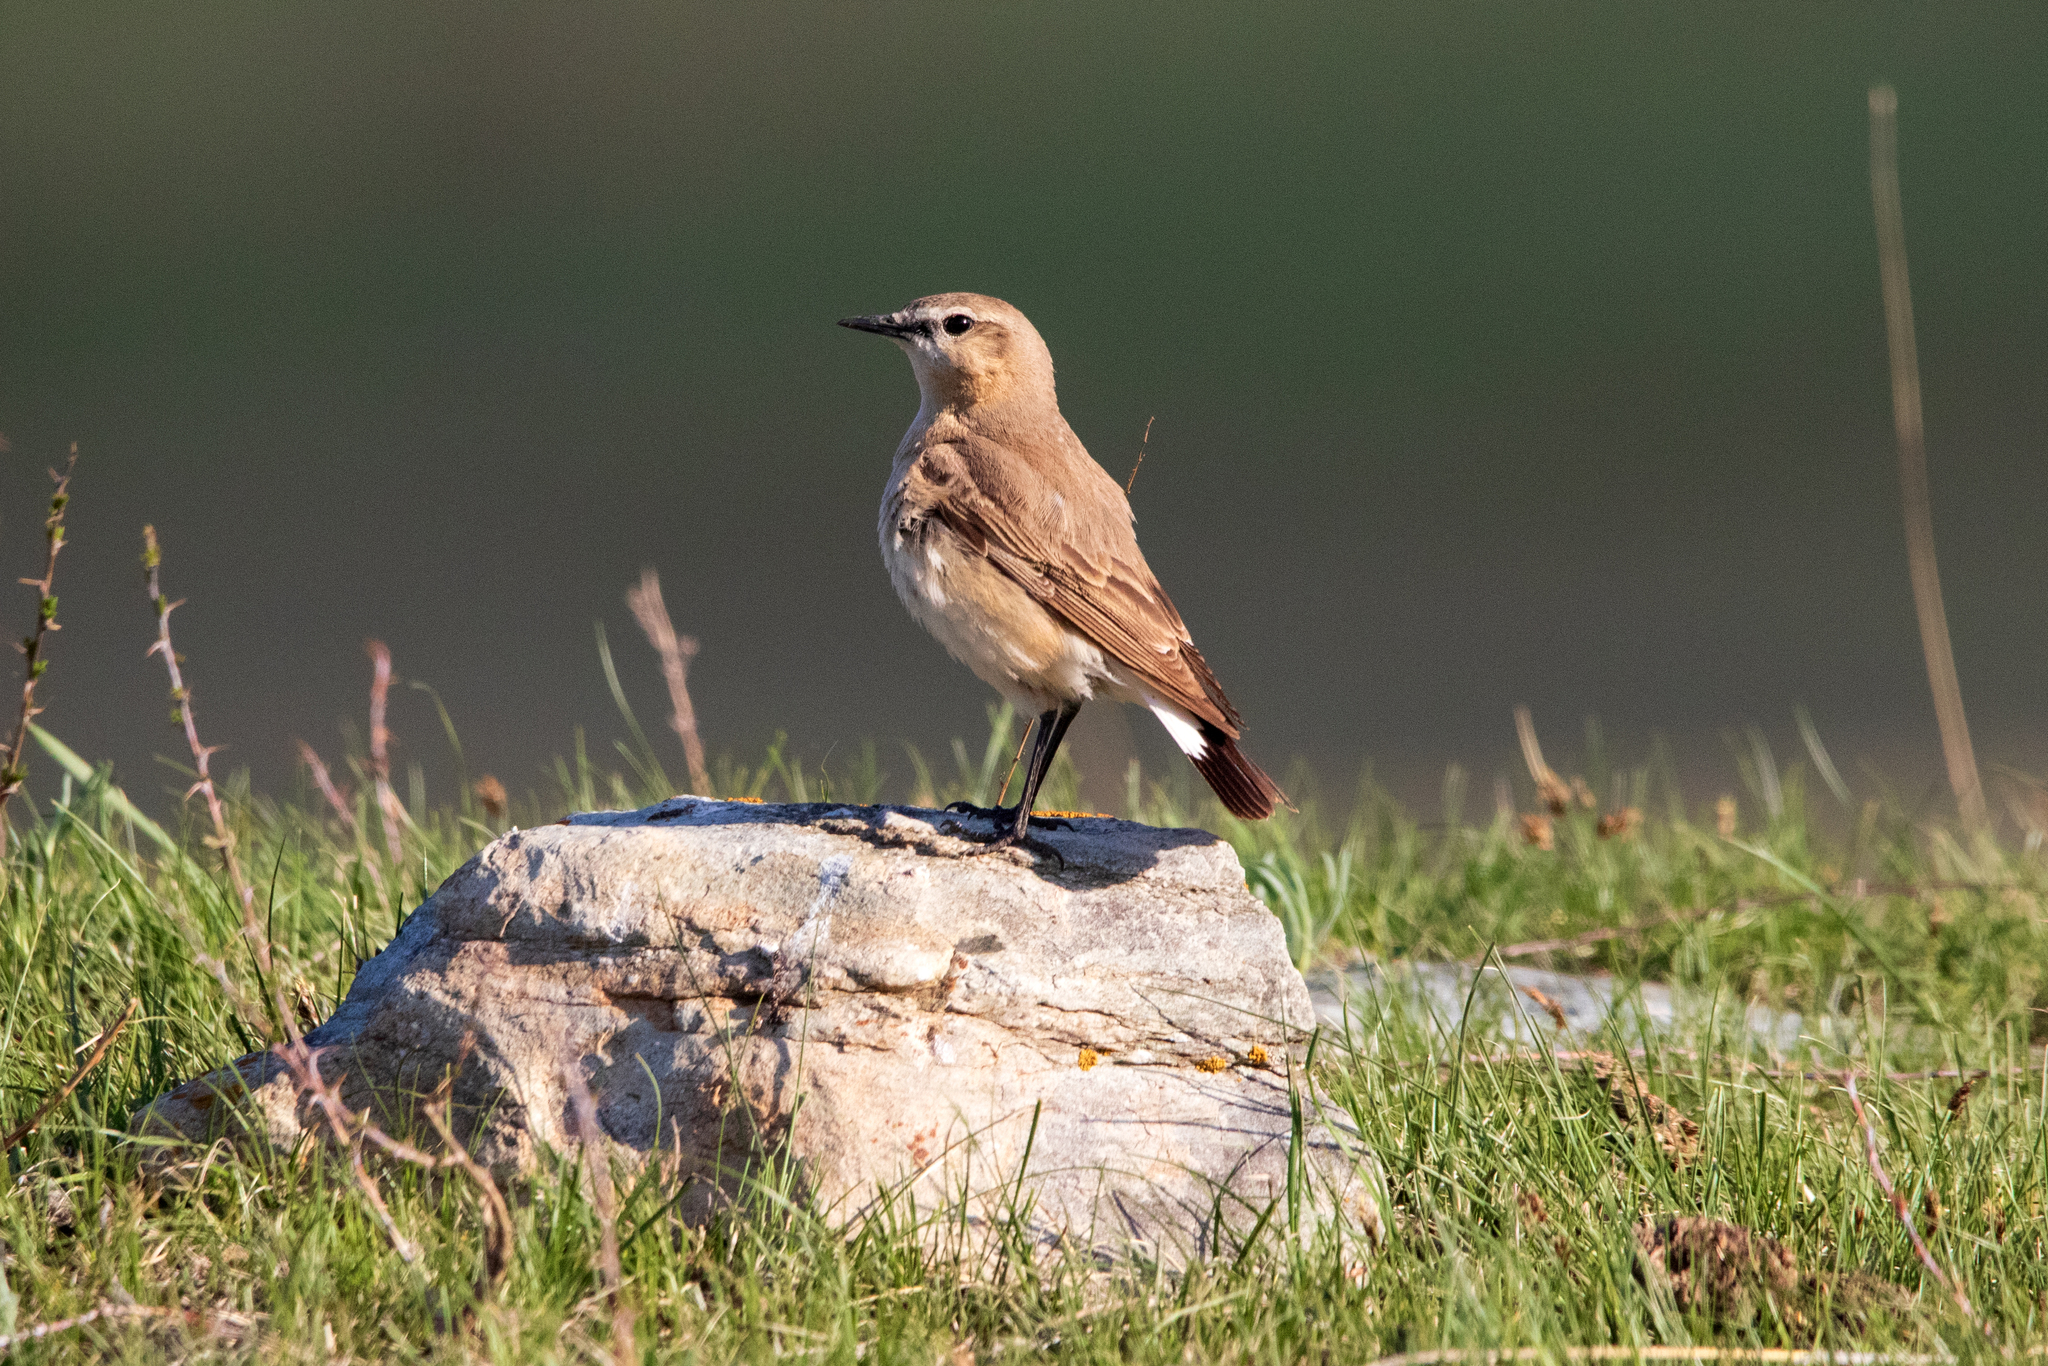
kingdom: Animalia
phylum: Chordata
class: Aves
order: Passeriformes
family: Muscicapidae
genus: Oenanthe
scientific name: Oenanthe isabellina
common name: Isabelline wheatear
